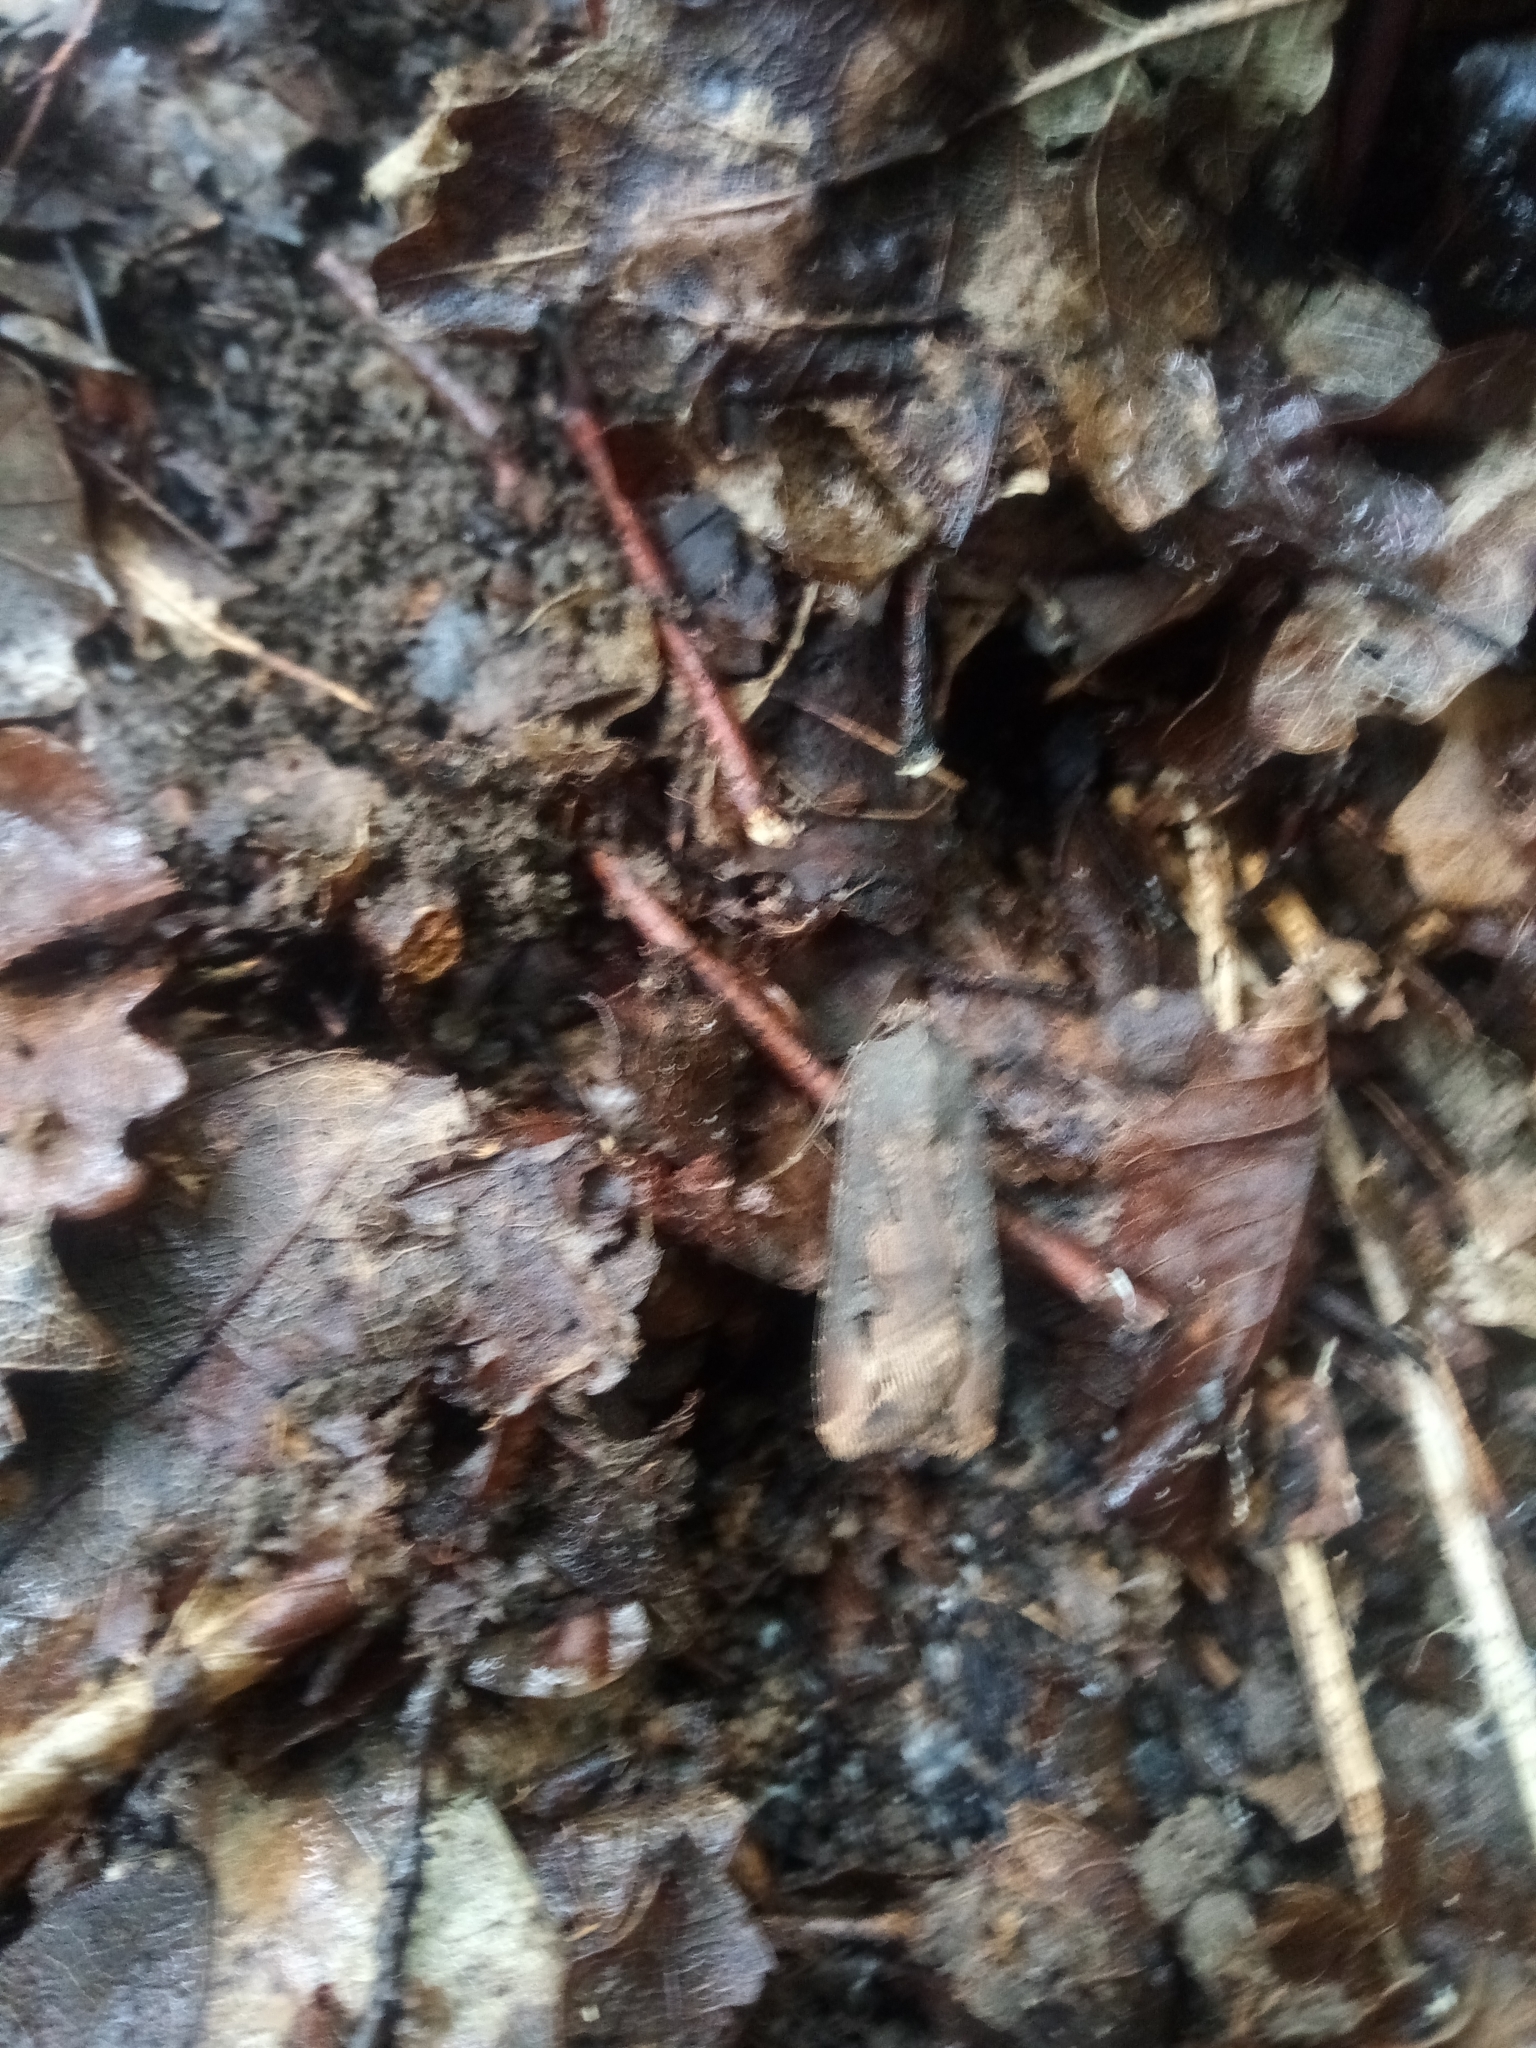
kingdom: Animalia
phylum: Arthropoda
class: Insecta
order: Lepidoptera
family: Noctuidae
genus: Agrotis
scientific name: Agrotis ipsilon
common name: Dark sword-grass
